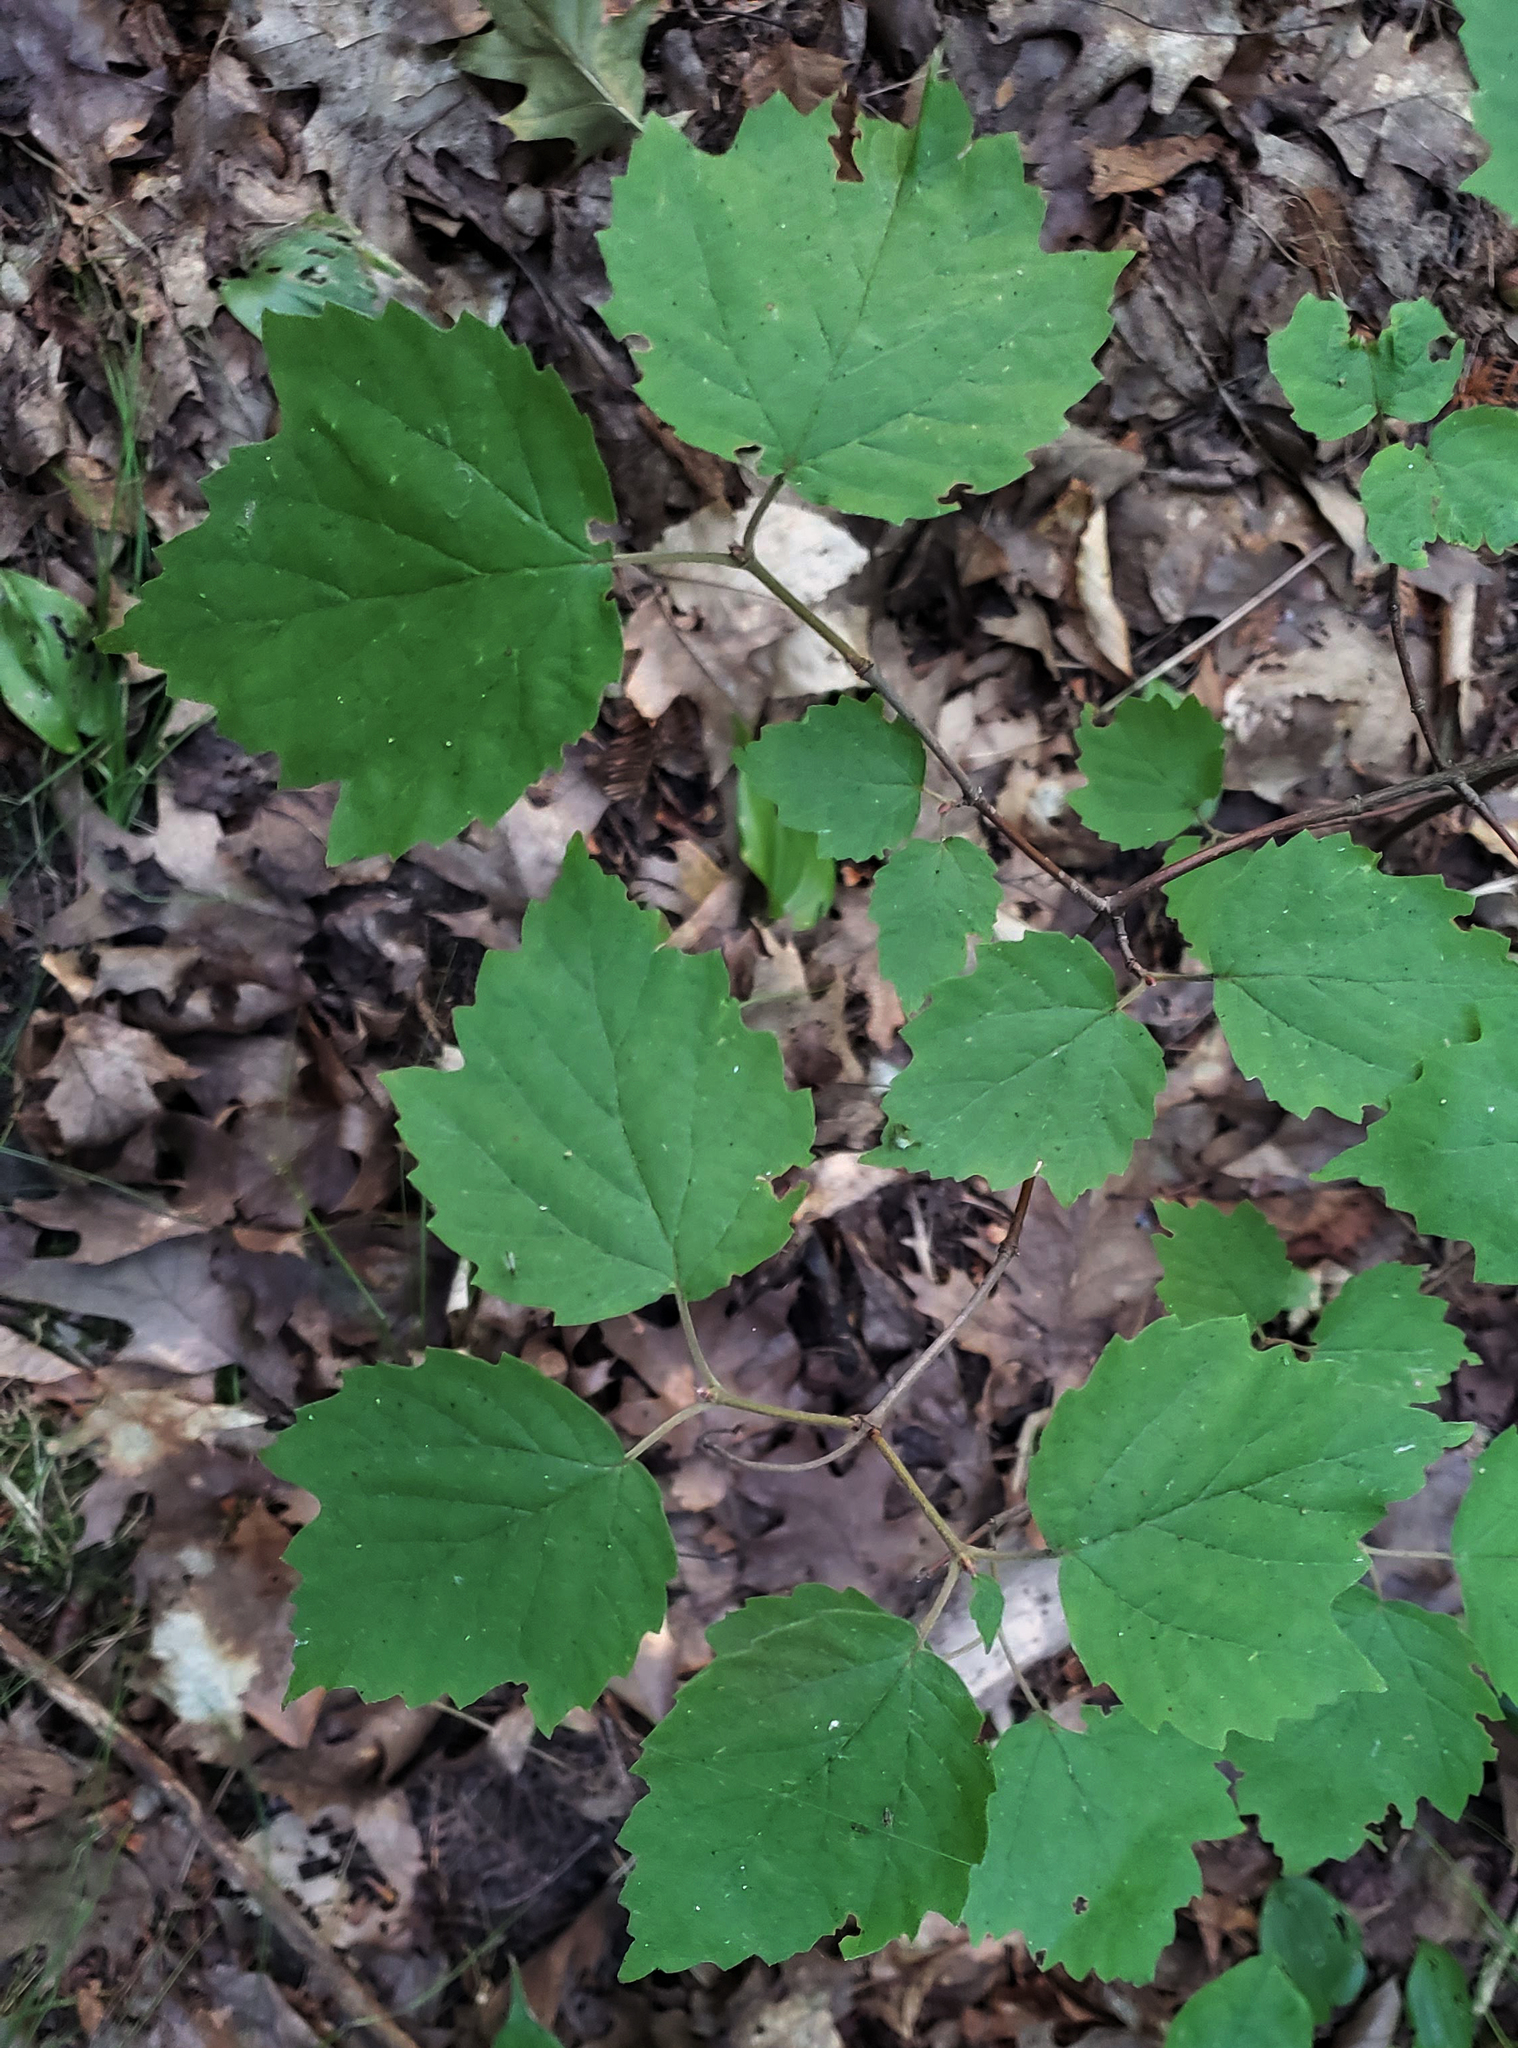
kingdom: Plantae
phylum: Tracheophyta
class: Magnoliopsida
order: Dipsacales
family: Viburnaceae
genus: Viburnum
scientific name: Viburnum acerifolium
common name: Dockmackie
